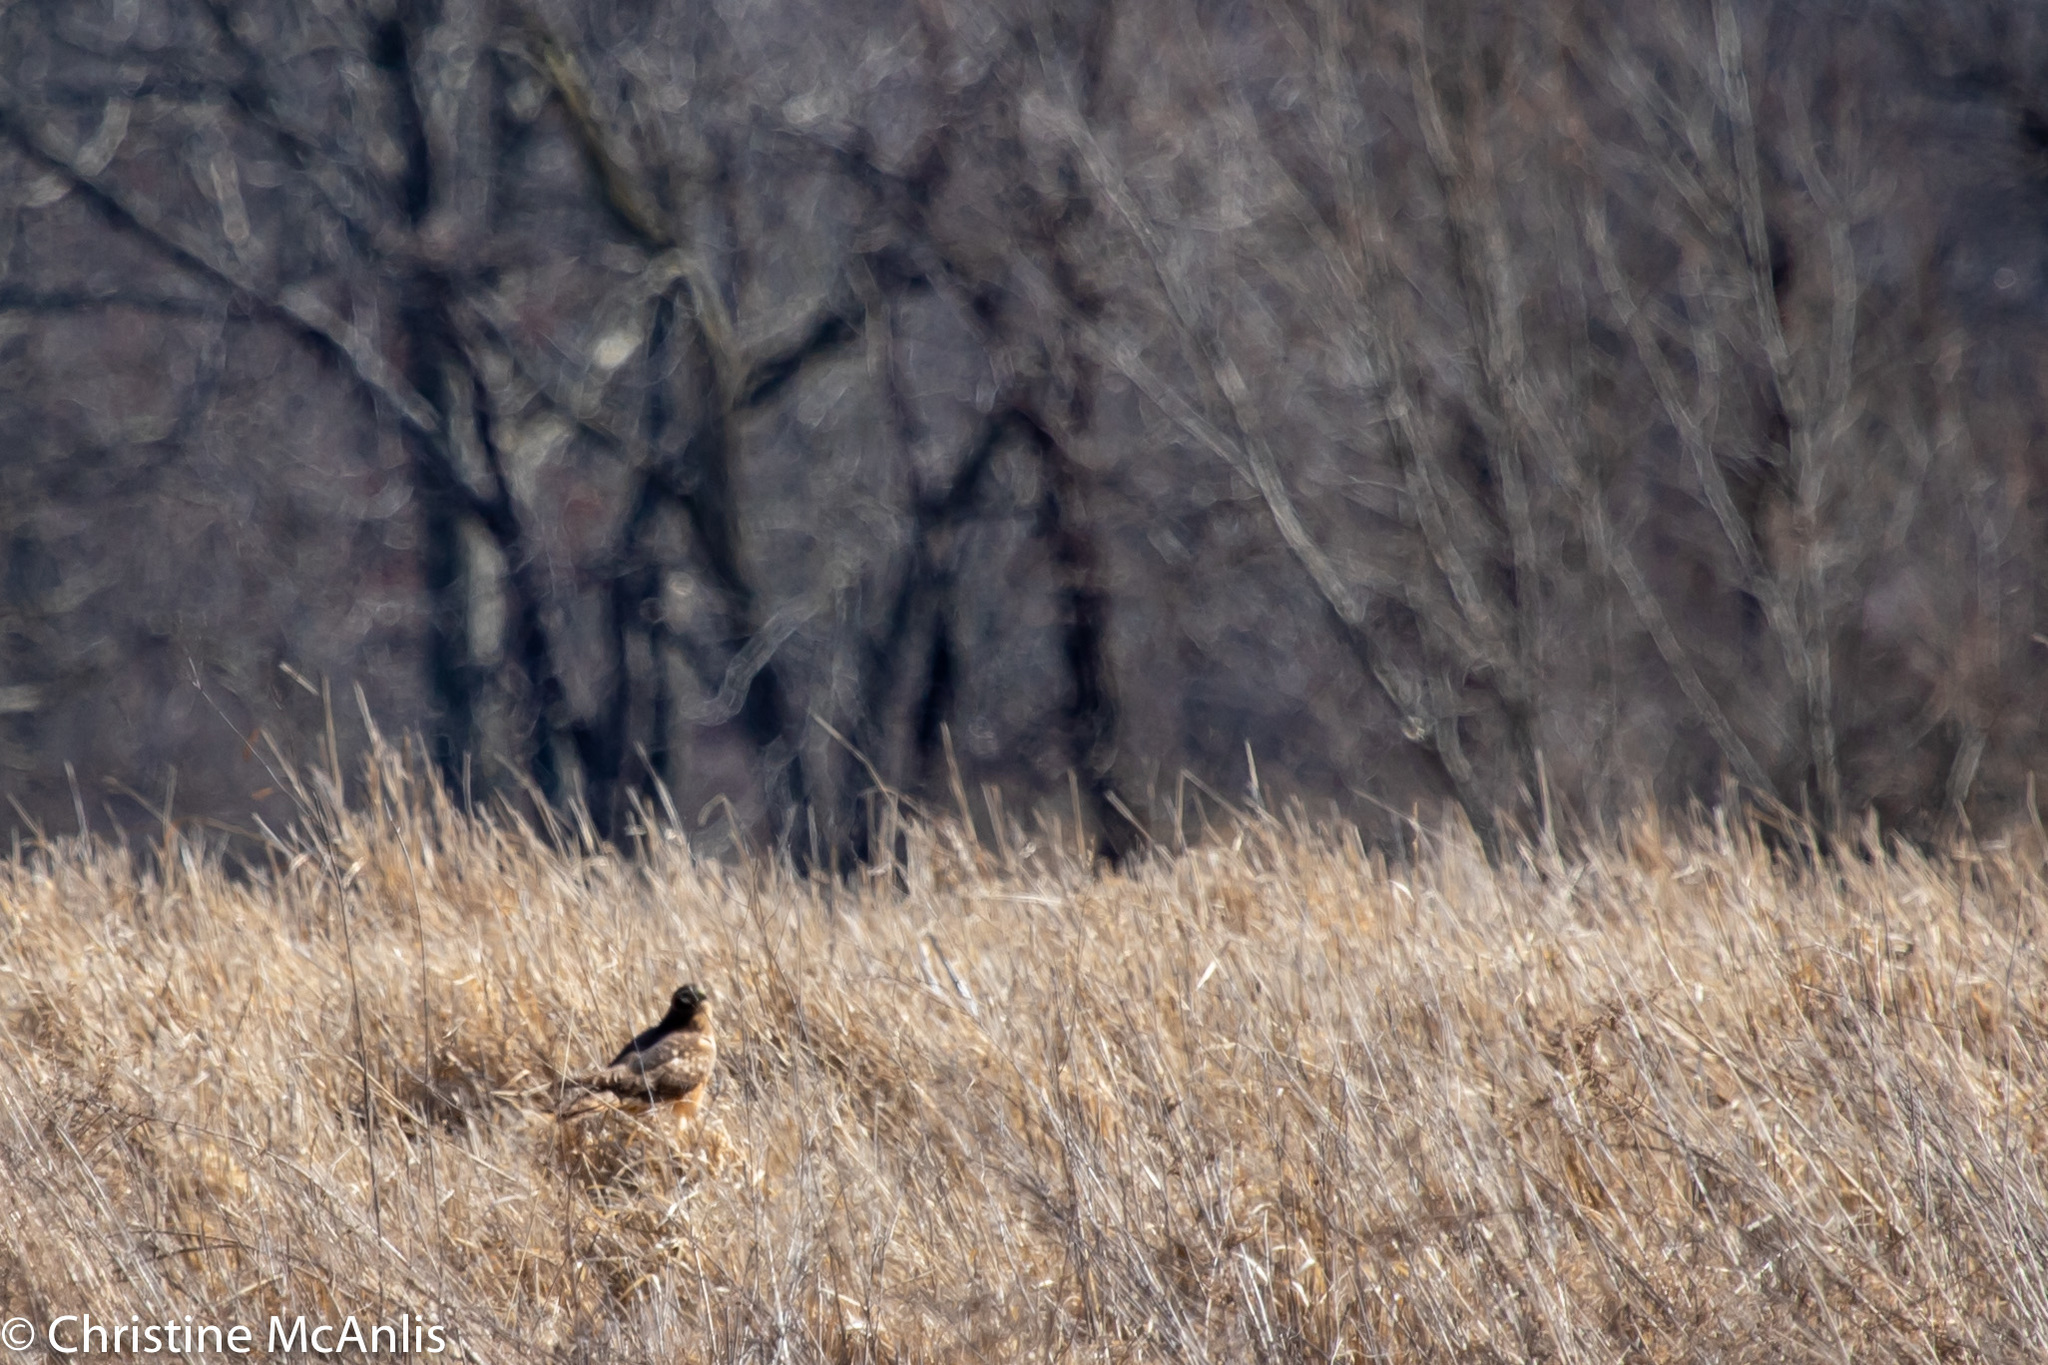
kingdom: Animalia
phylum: Chordata
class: Aves
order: Accipitriformes
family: Accipitridae
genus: Circus
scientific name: Circus cyaneus
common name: Hen harrier
